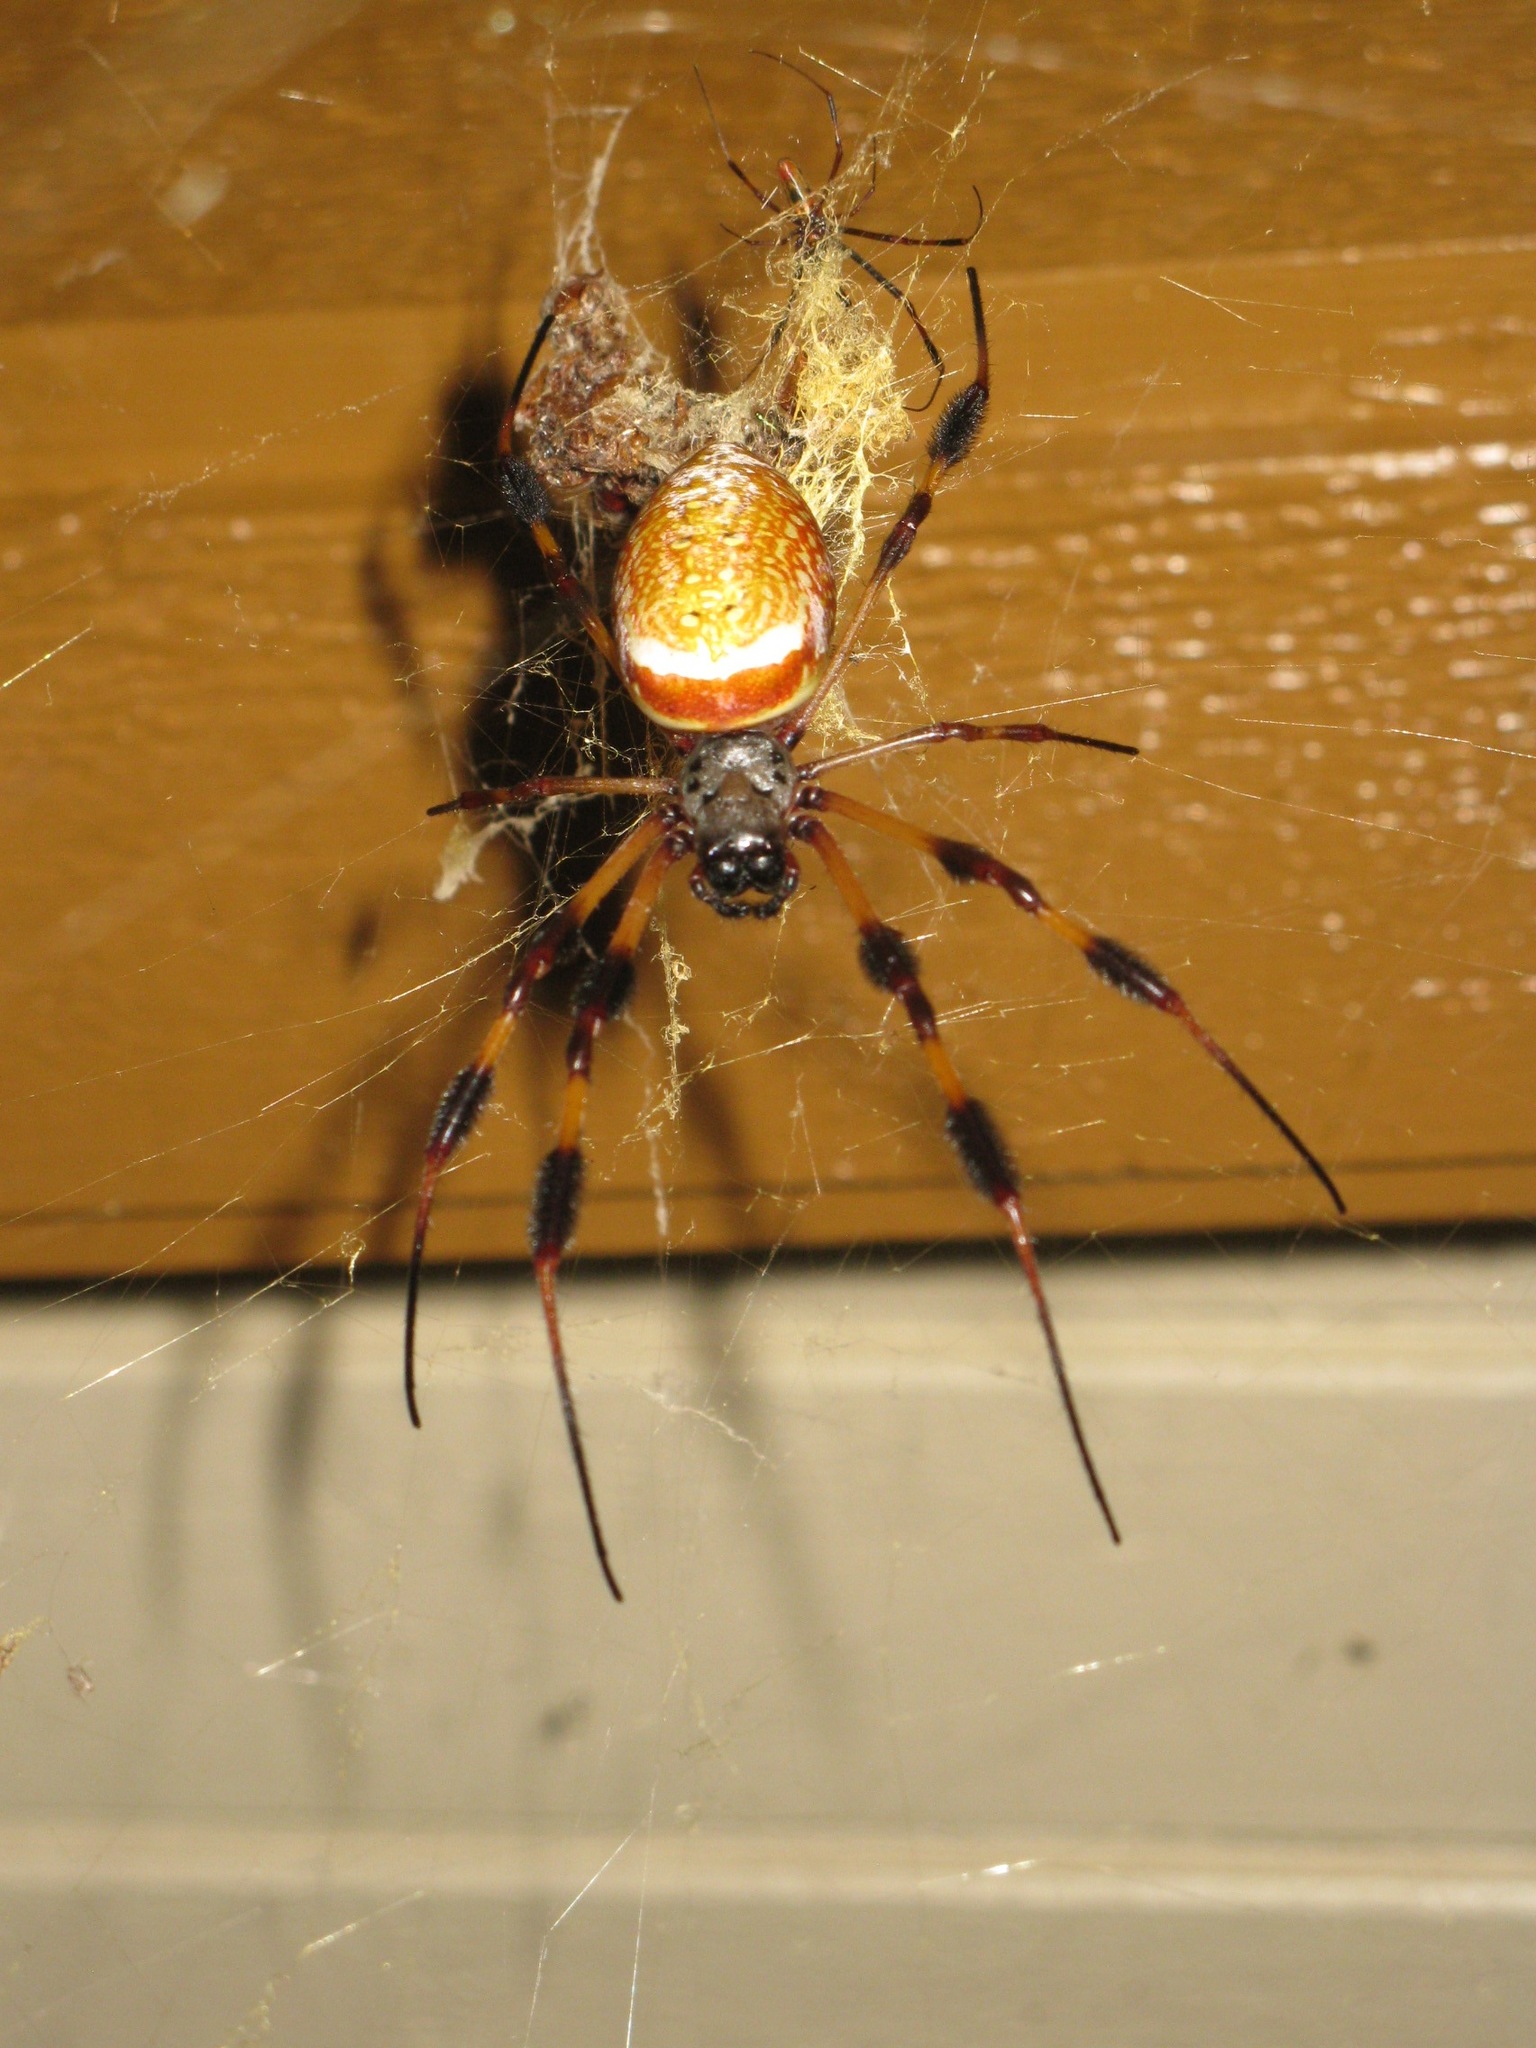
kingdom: Animalia
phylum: Arthropoda
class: Arachnida
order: Araneae
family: Araneidae
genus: Trichonephila
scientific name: Trichonephila clavipes
